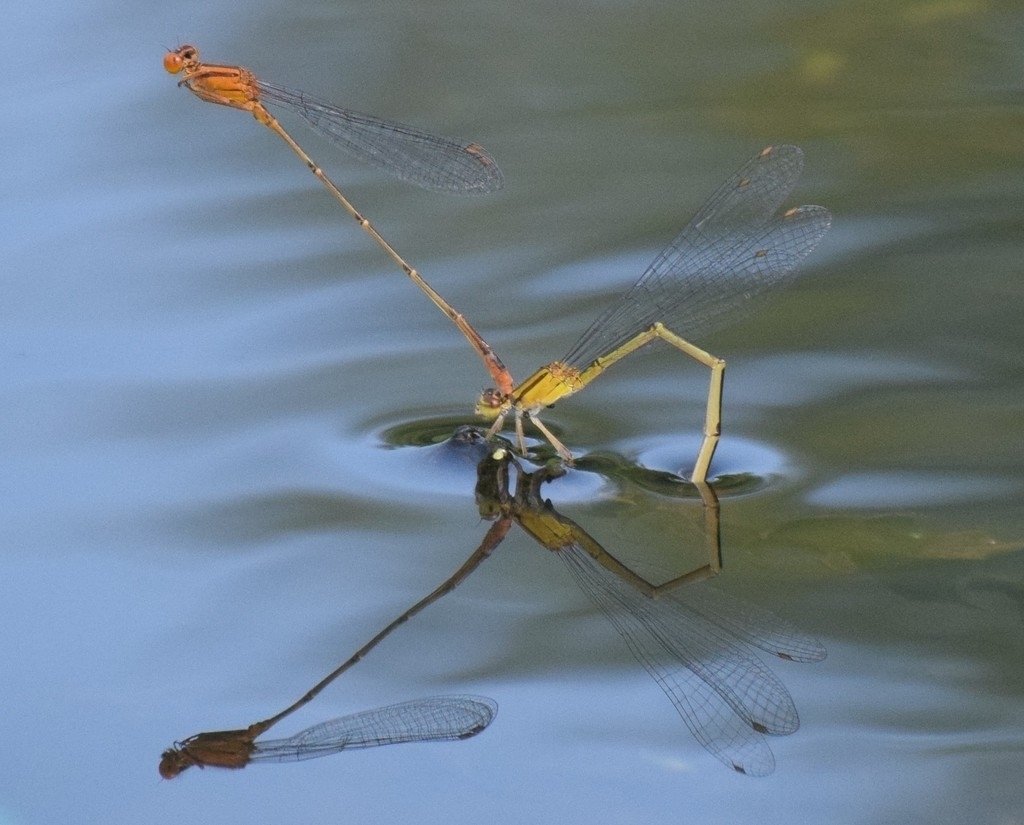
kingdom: Animalia
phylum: Arthropoda
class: Insecta
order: Odonata
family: Coenagrionidae
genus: Enallagma
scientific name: Enallagma signatum
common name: Orange bluet
